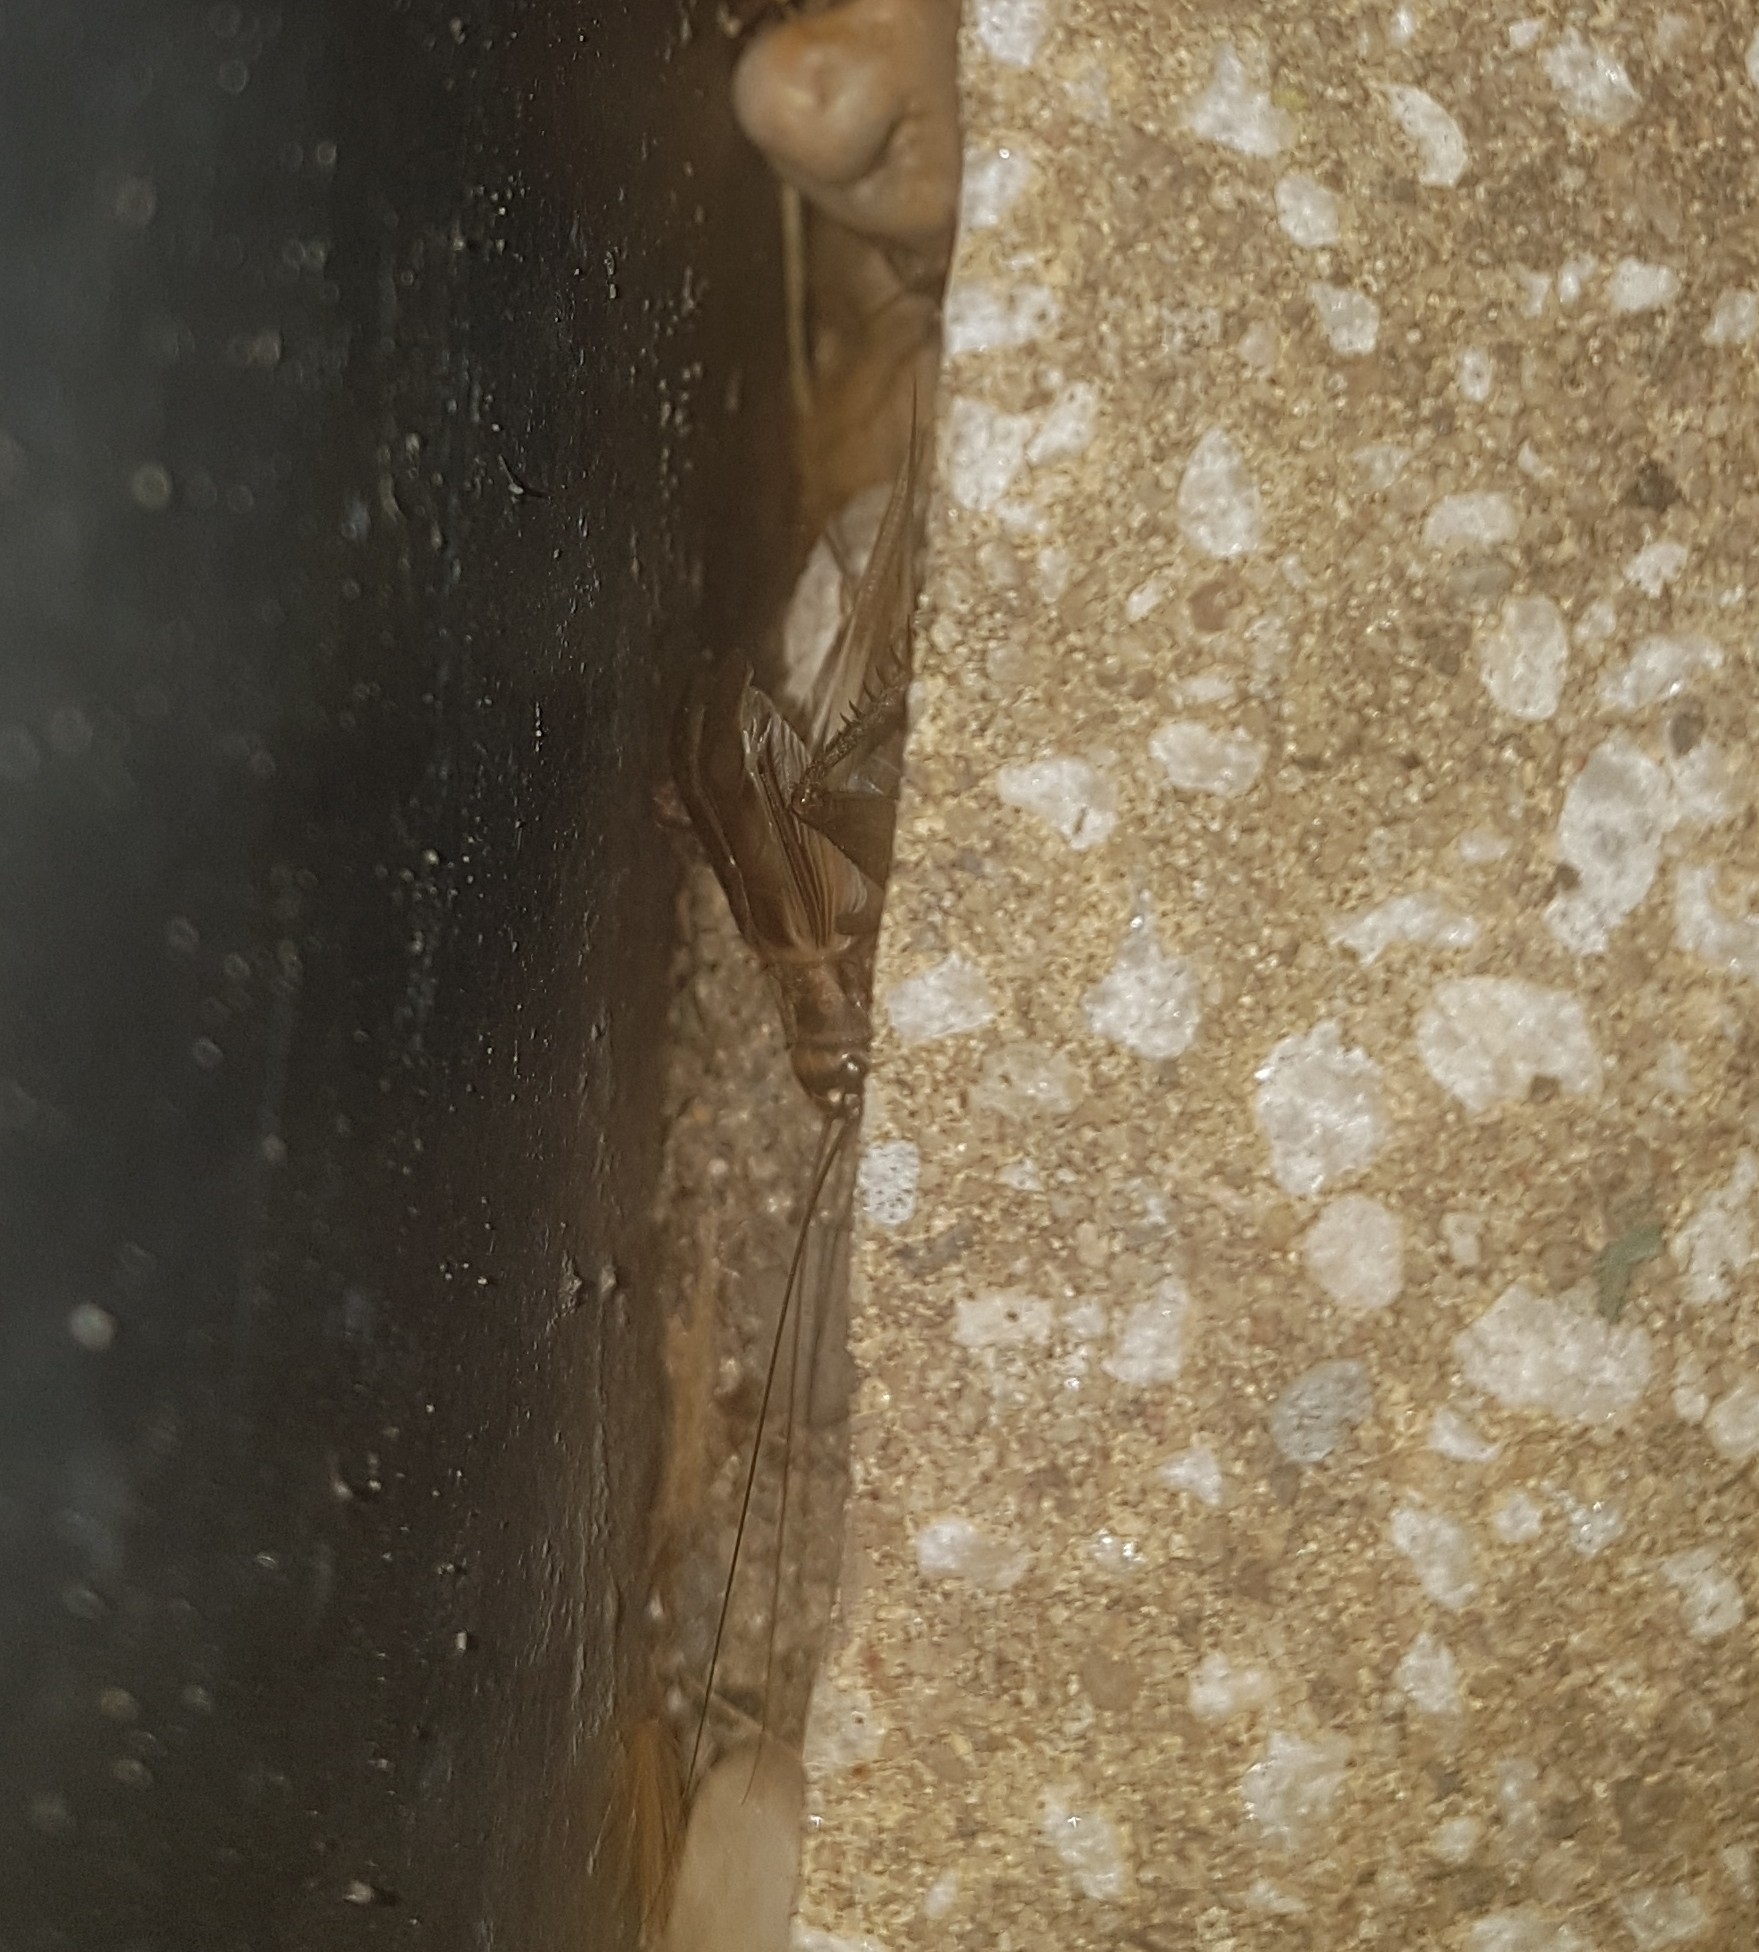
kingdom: Animalia
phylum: Arthropoda
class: Insecta
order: Orthoptera
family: Gryllidae
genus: Acheta
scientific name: Acheta domesticus
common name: House cricket
